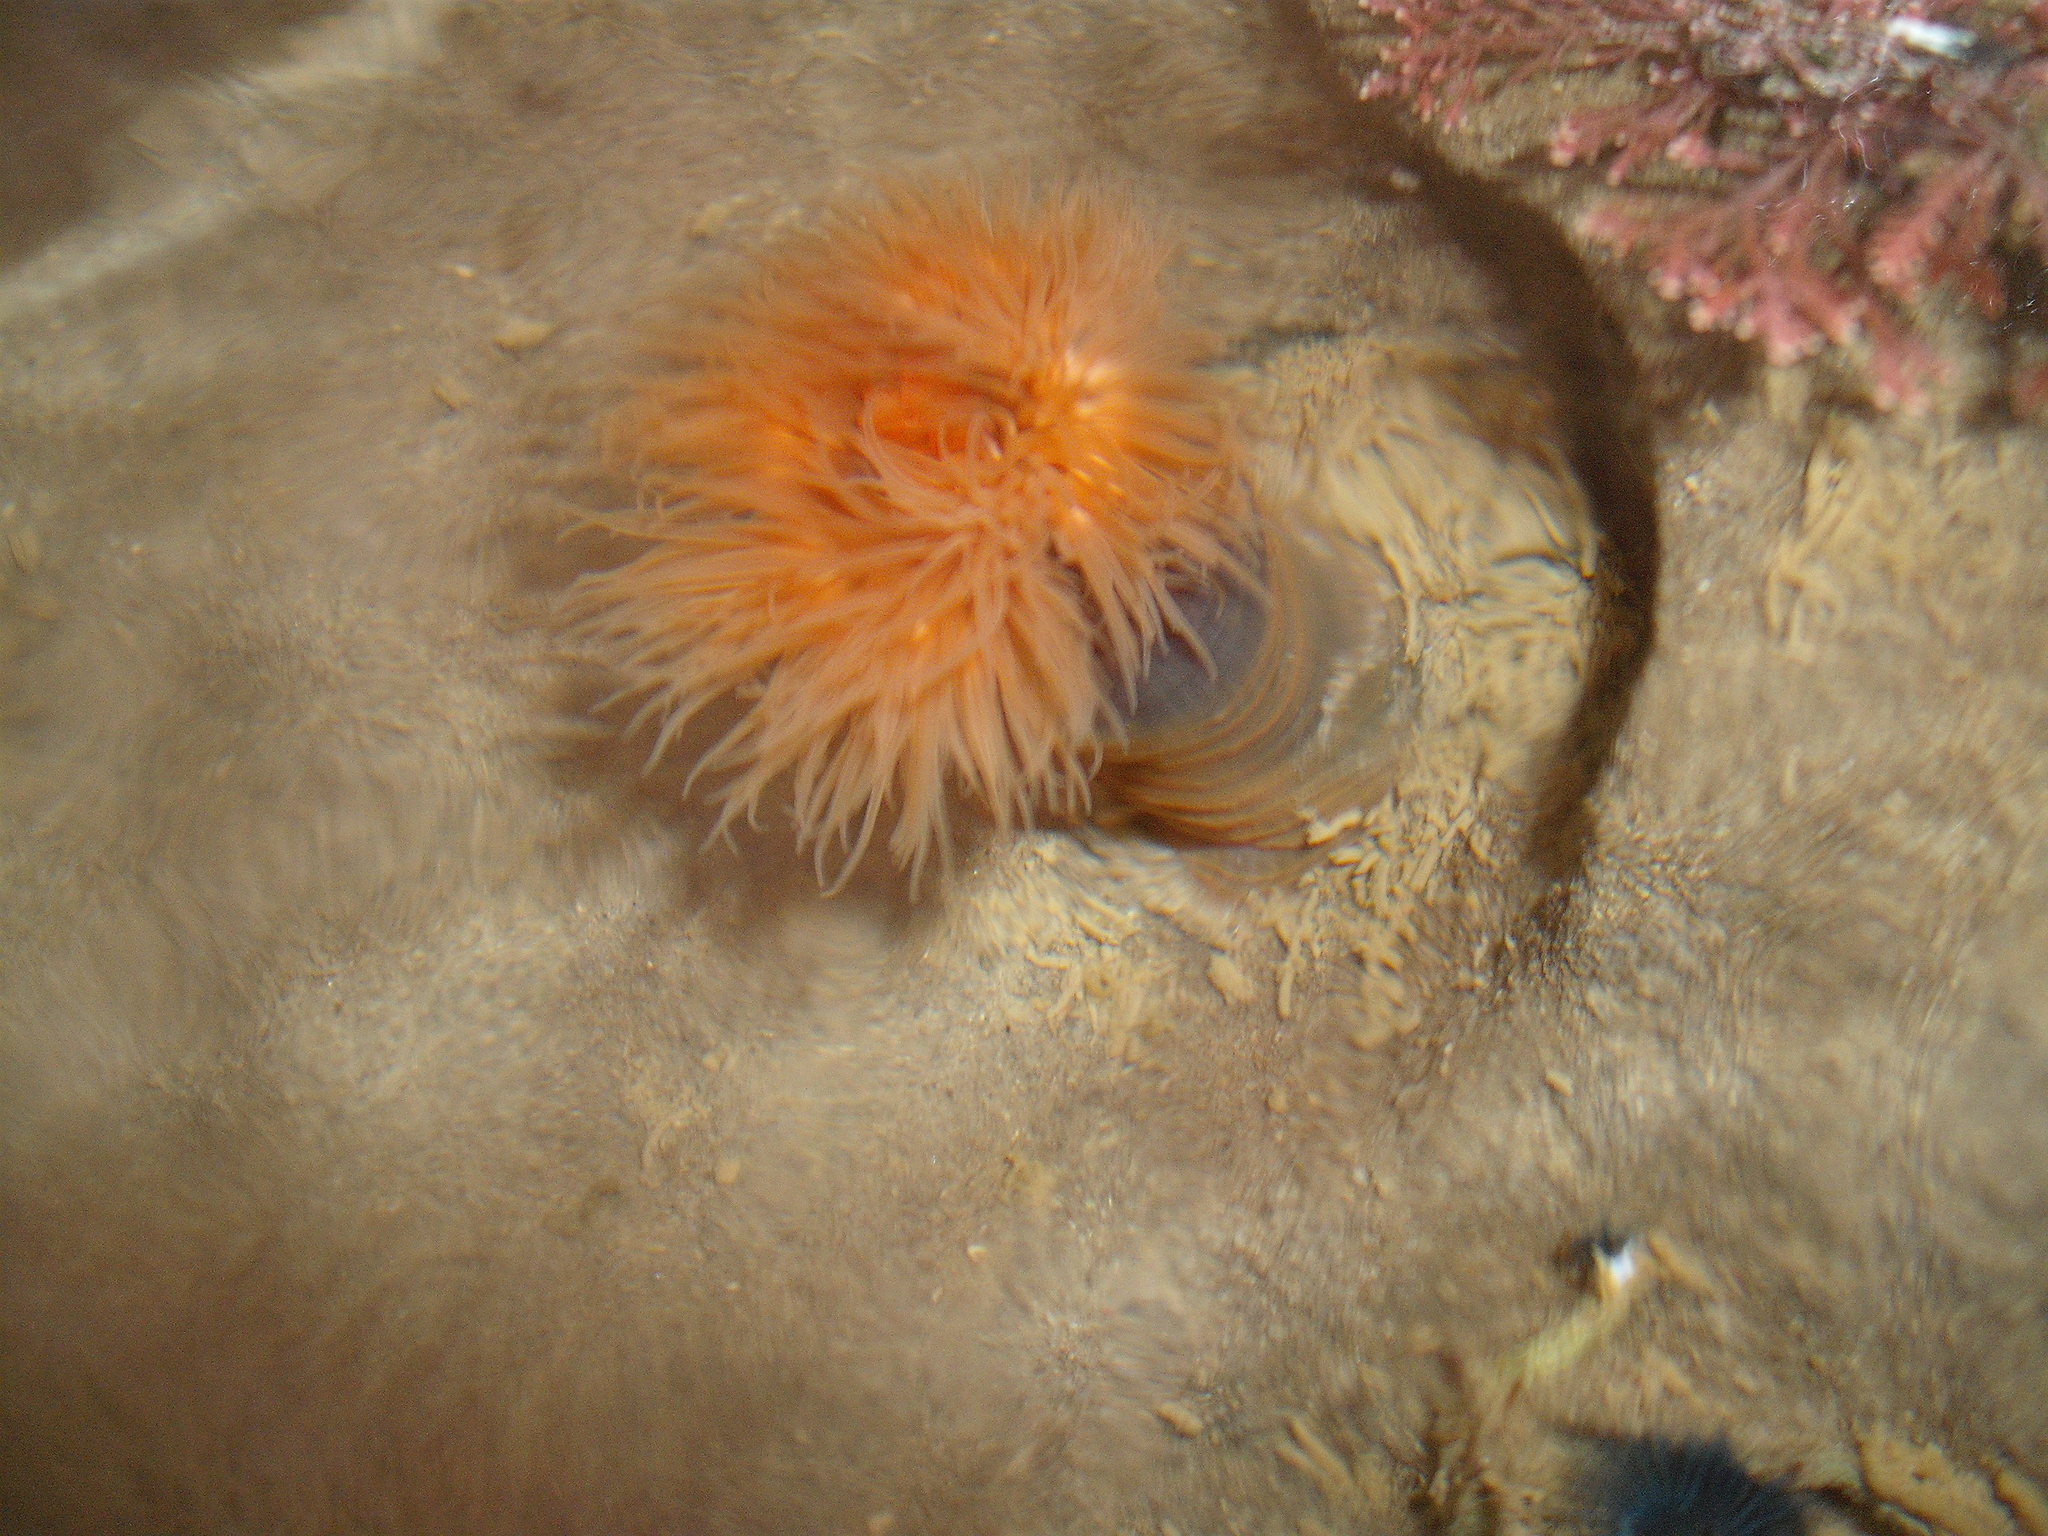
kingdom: Animalia
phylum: Cnidaria
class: Anthozoa
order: Actiniaria
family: Diadumenidae
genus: Diadumene
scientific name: Diadumene neozelanica
